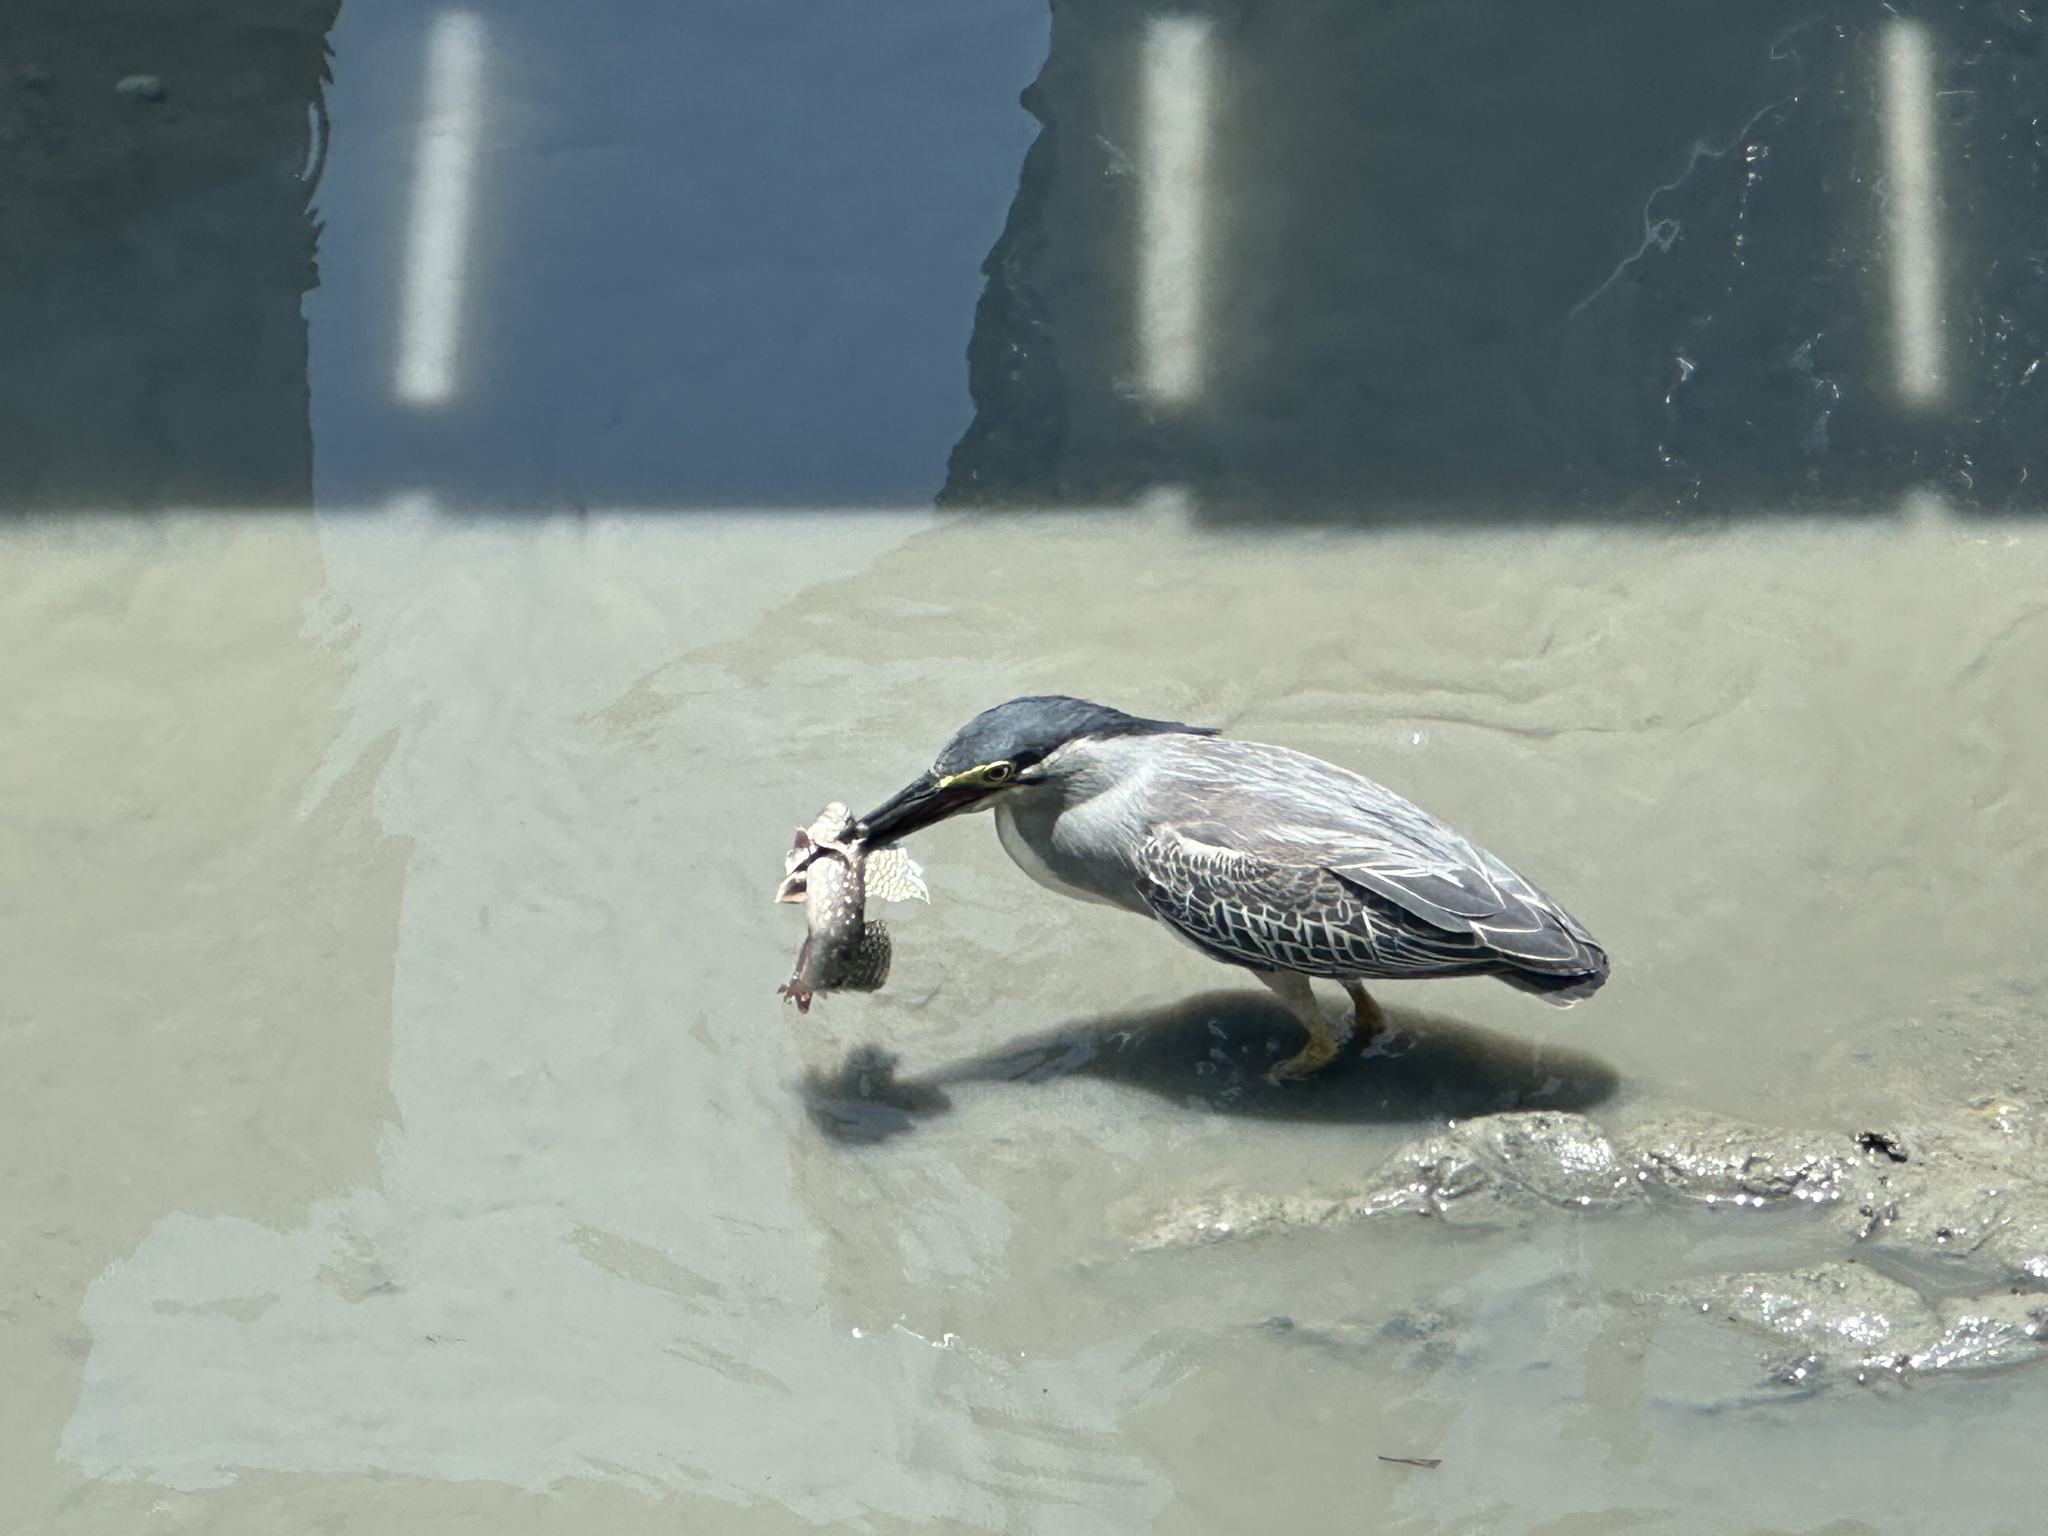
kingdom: Animalia
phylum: Chordata
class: Aves
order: Pelecaniformes
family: Ardeidae
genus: Butorides
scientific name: Butorides striata
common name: Striated heron
